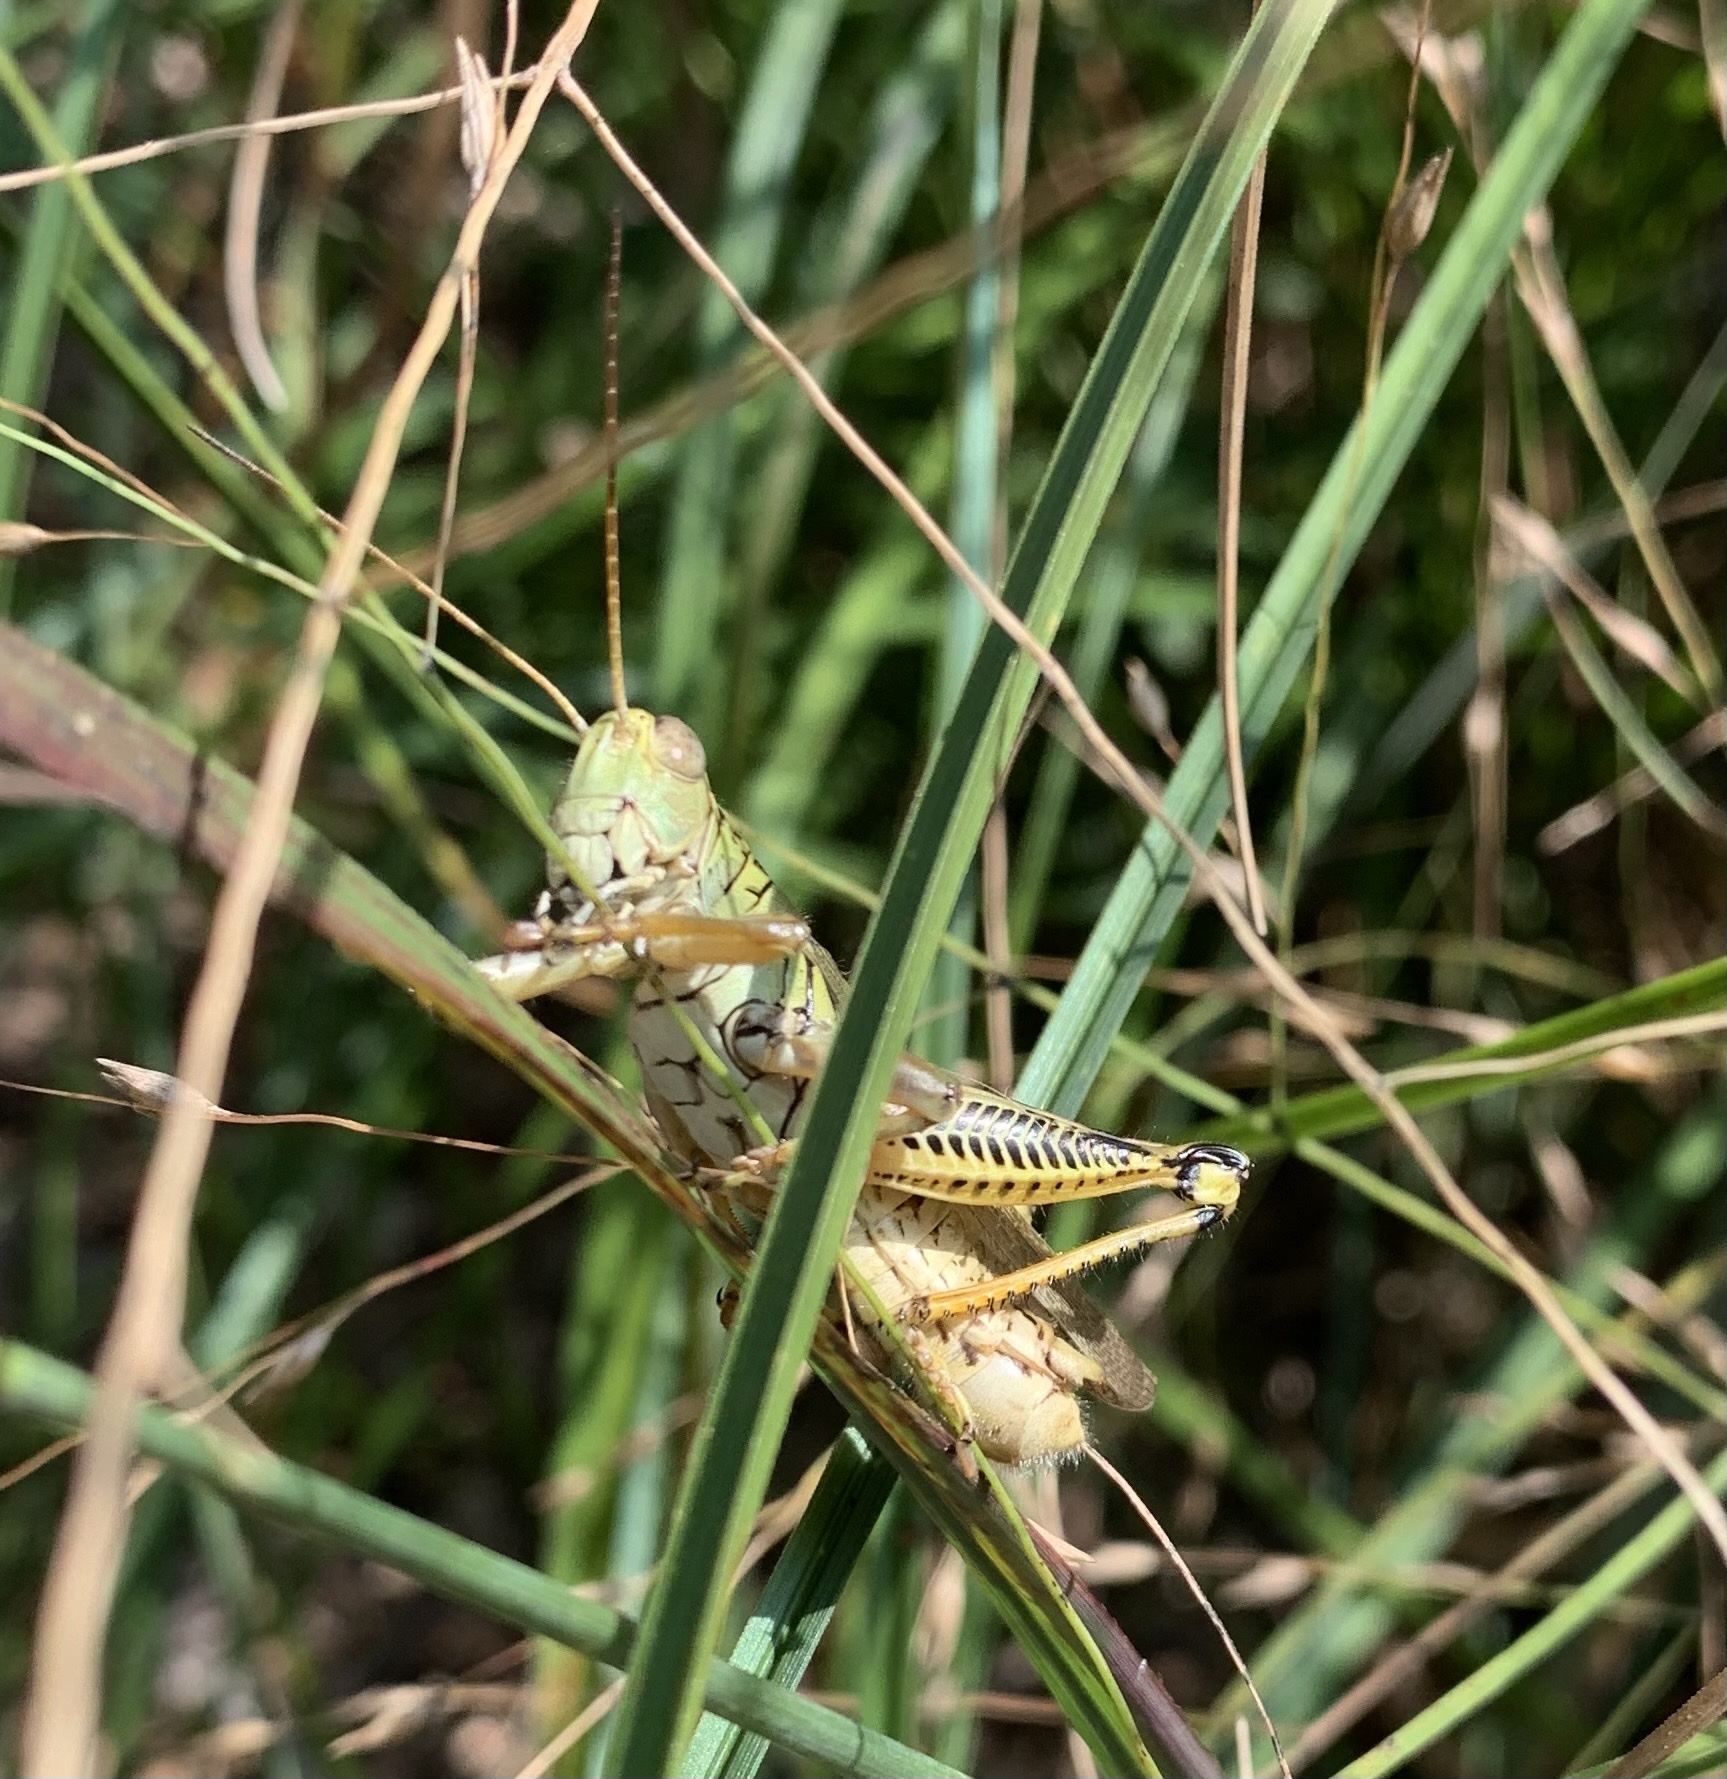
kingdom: Animalia
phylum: Arthropoda
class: Insecta
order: Orthoptera
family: Acrididae
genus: Melanoplus
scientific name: Melanoplus differentialis
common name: Differential grasshopper
